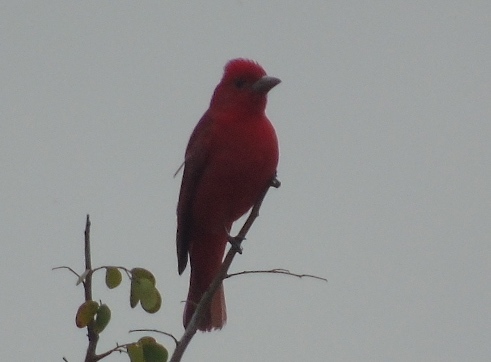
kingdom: Animalia
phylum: Chordata
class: Aves
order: Passeriformes
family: Cardinalidae
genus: Piranga
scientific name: Piranga rubra
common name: Summer tanager
